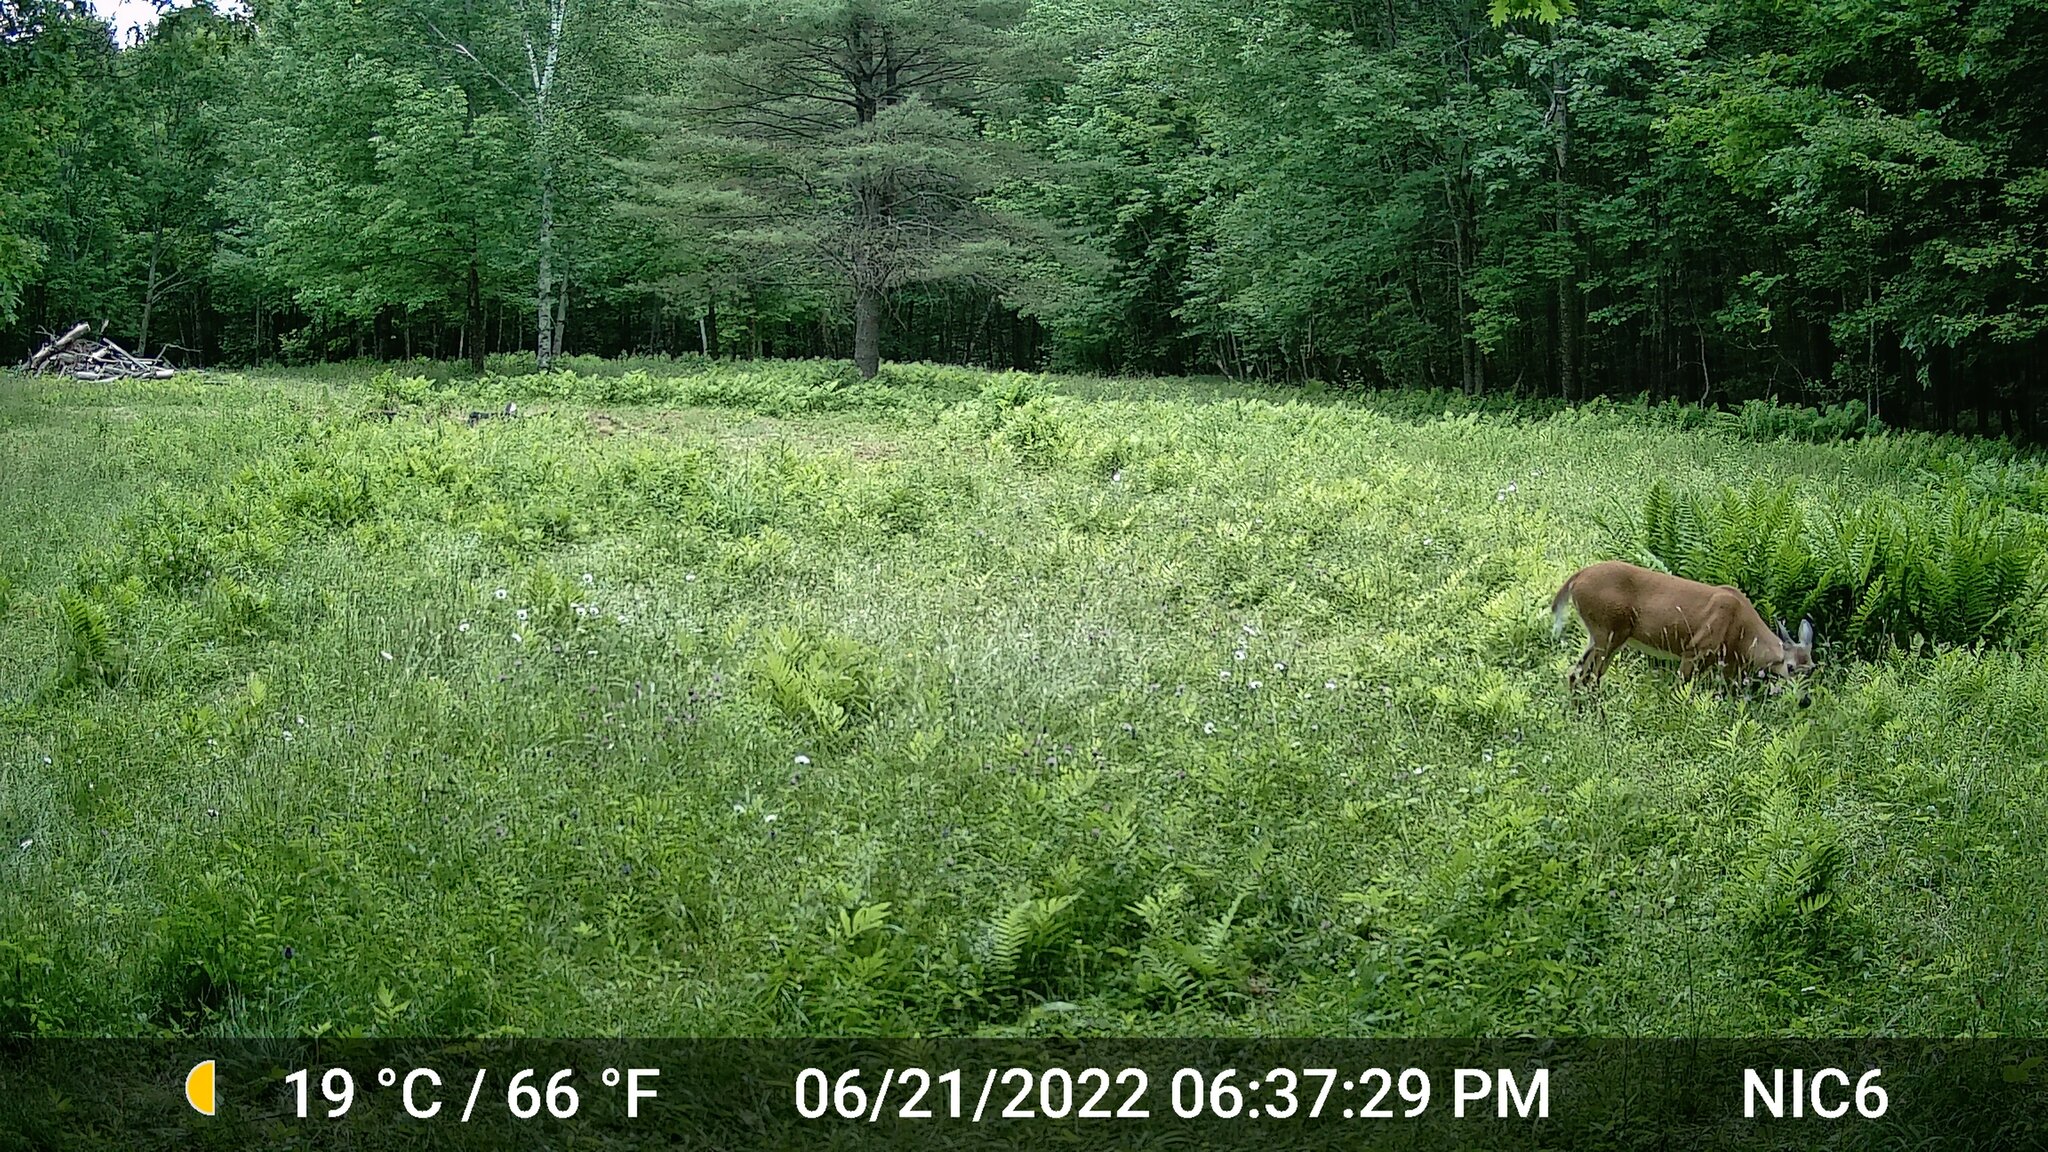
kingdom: Animalia
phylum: Chordata
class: Mammalia
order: Artiodactyla
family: Cervidae
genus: Odocoileus
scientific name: Odocoileus virginianus
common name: White-tailed deer
